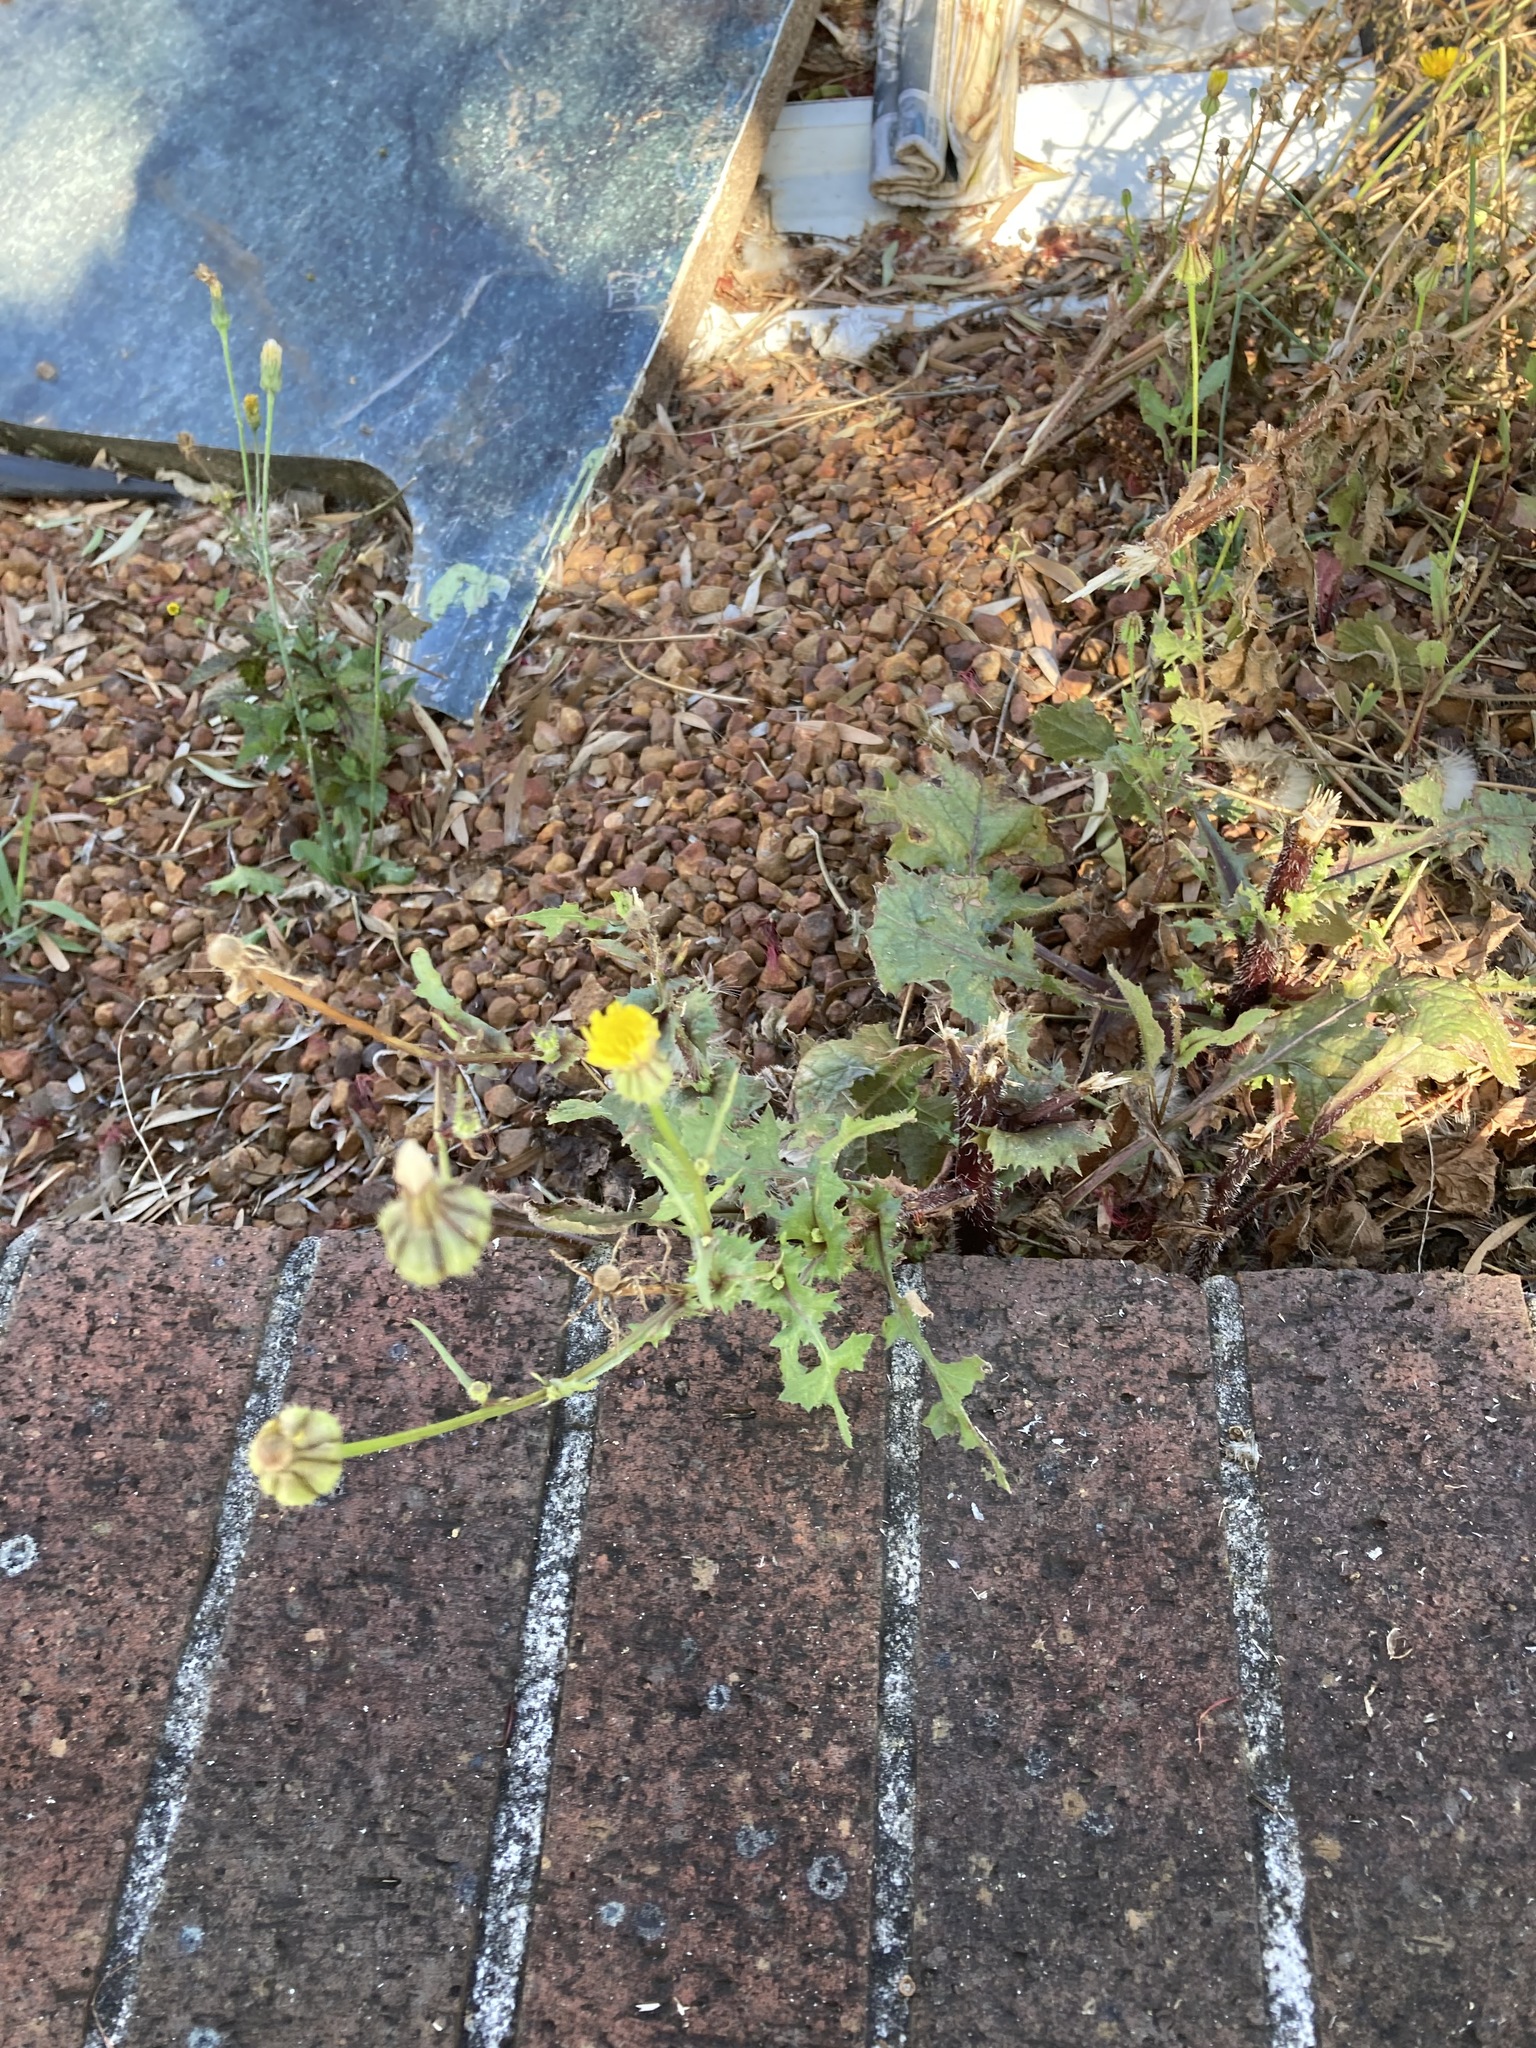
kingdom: Plantae
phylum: Tracheophyta
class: Magnoliopsida
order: Asterales
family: Asteraceae
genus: Urospermum
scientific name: Urospermum picroides
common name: False hawkbit
